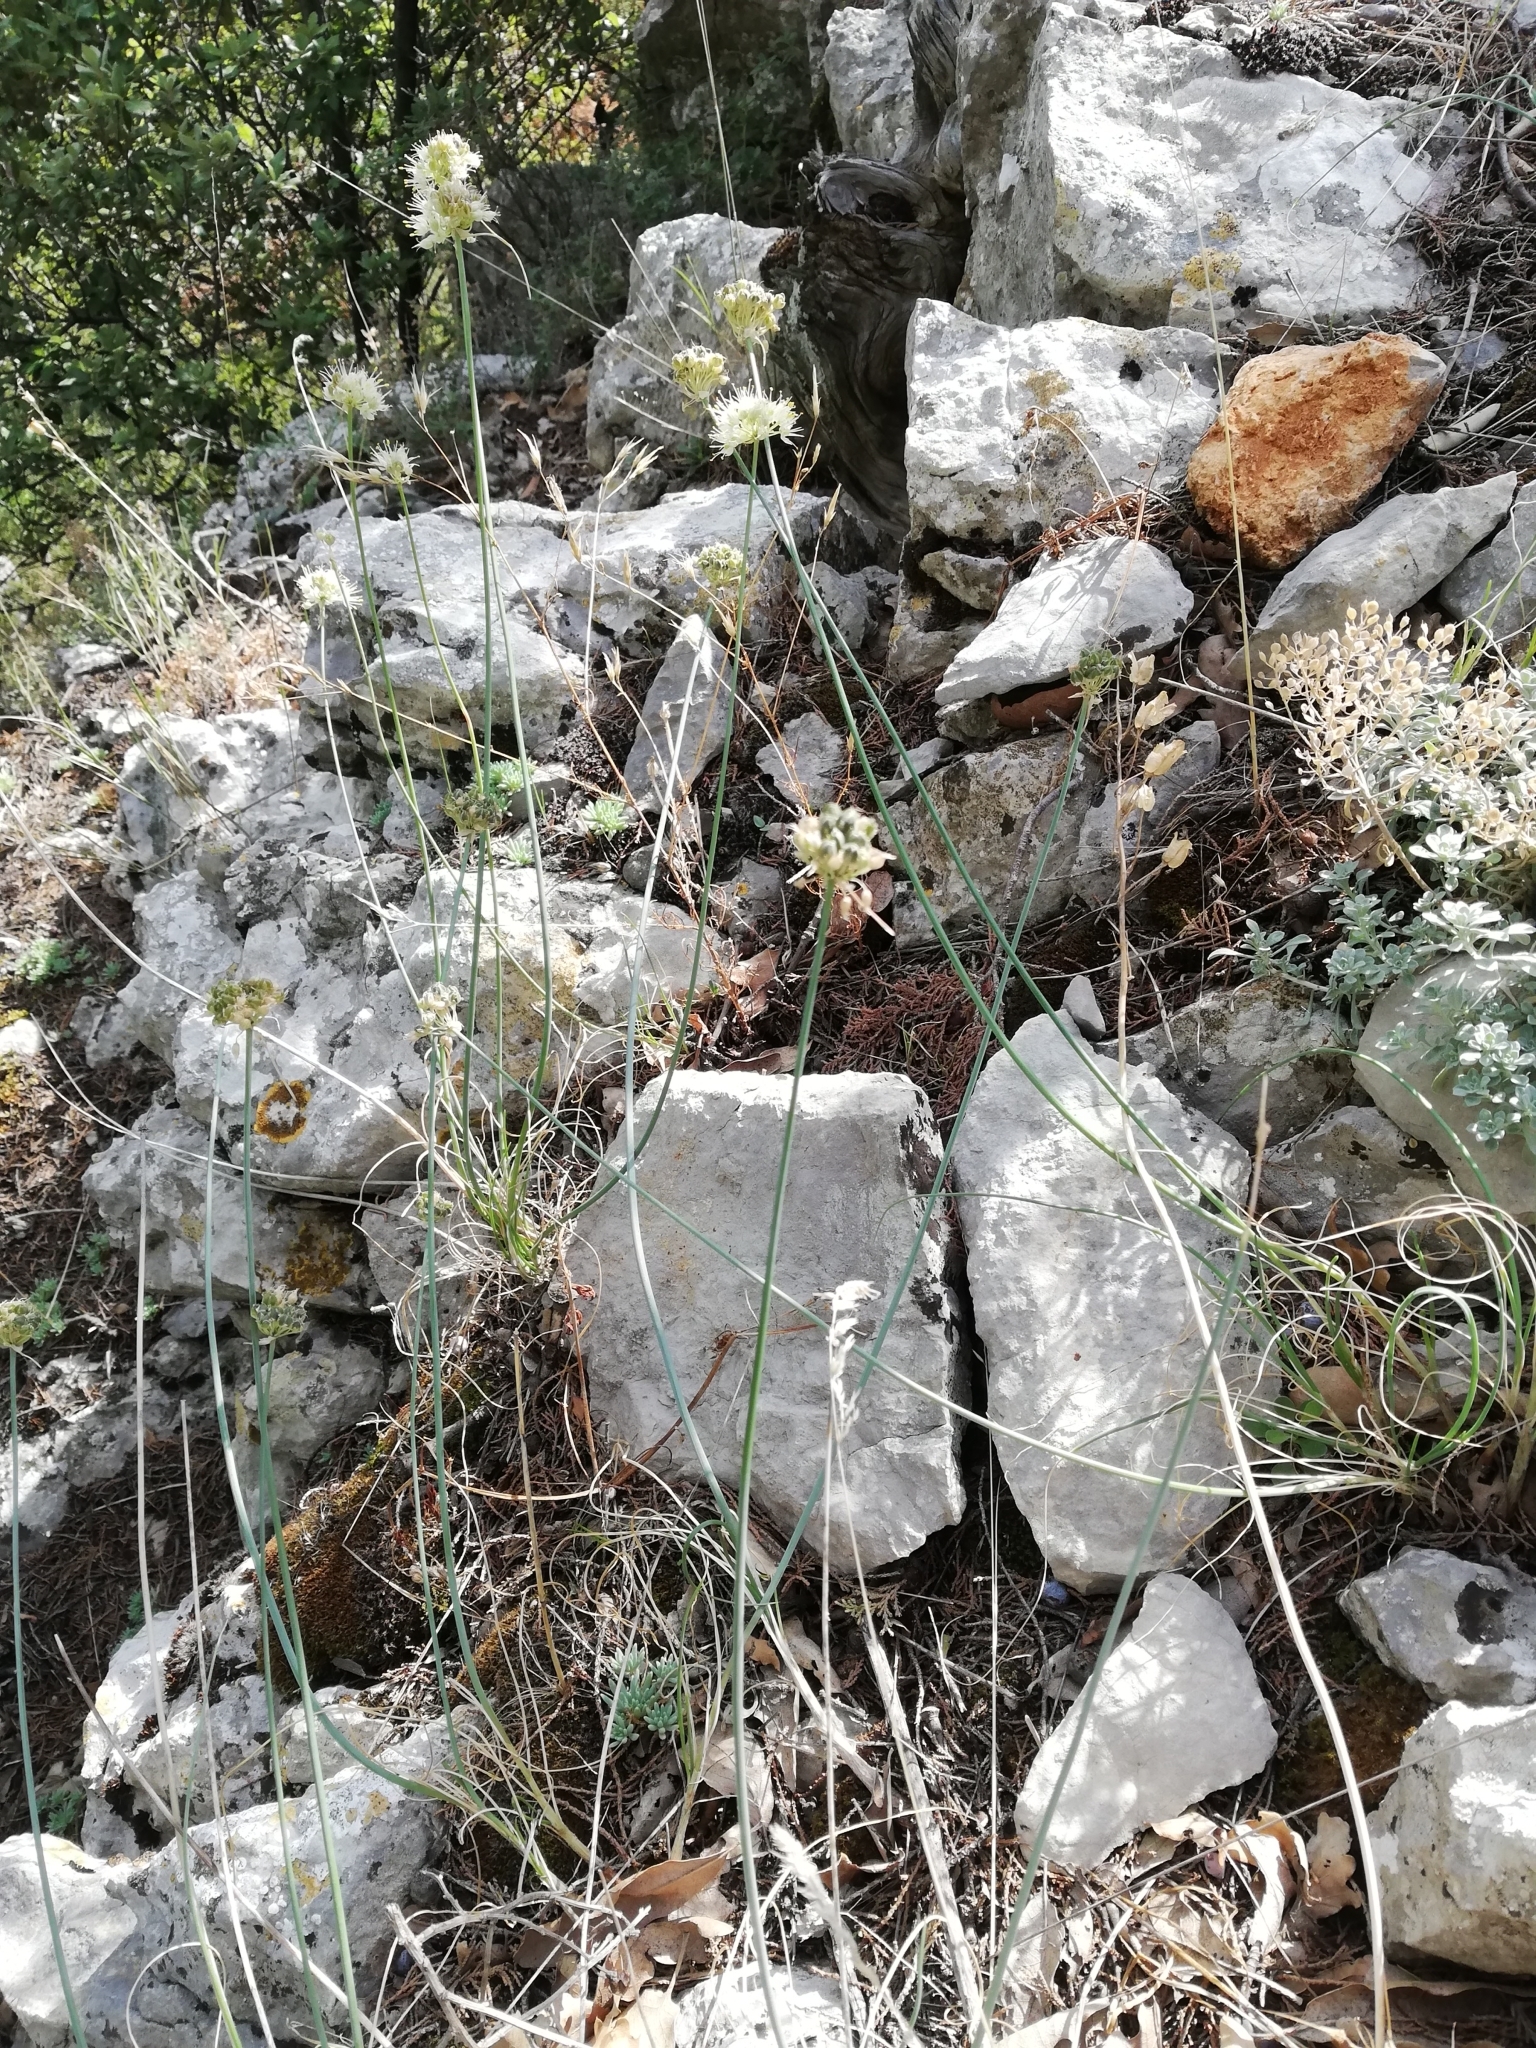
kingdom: Plantae
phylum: Tracheophyta
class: Liliopsida
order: Asparagales
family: Amaryllidaceae
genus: Allium
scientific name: Allium marschallianum
